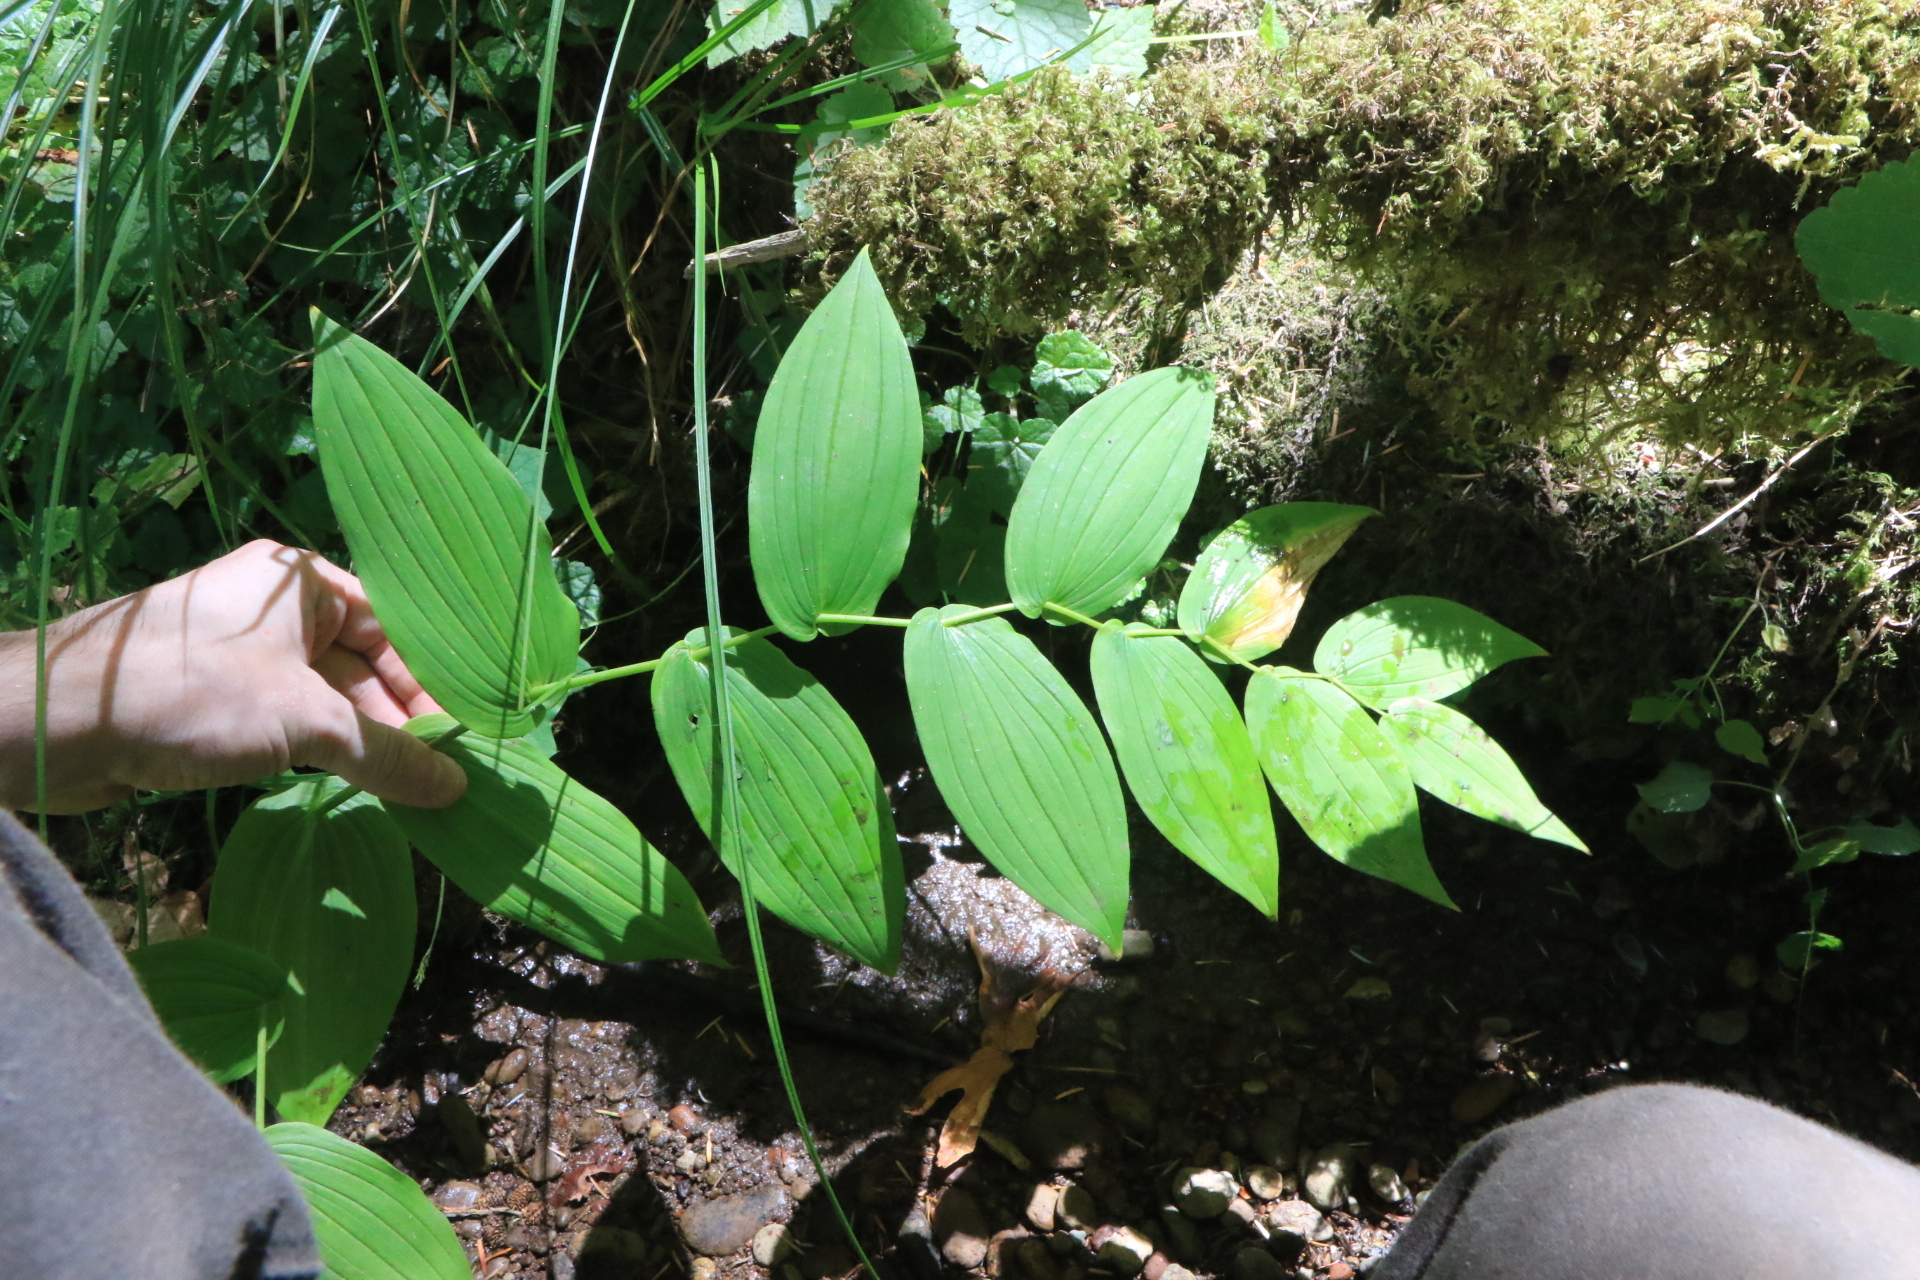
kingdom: Plantae
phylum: Tracheophyta
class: Liliopsida
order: Liliales
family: Liliaceae
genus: Streptopus
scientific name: Streptopus amplexifolius
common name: Clasp twisted stalk
